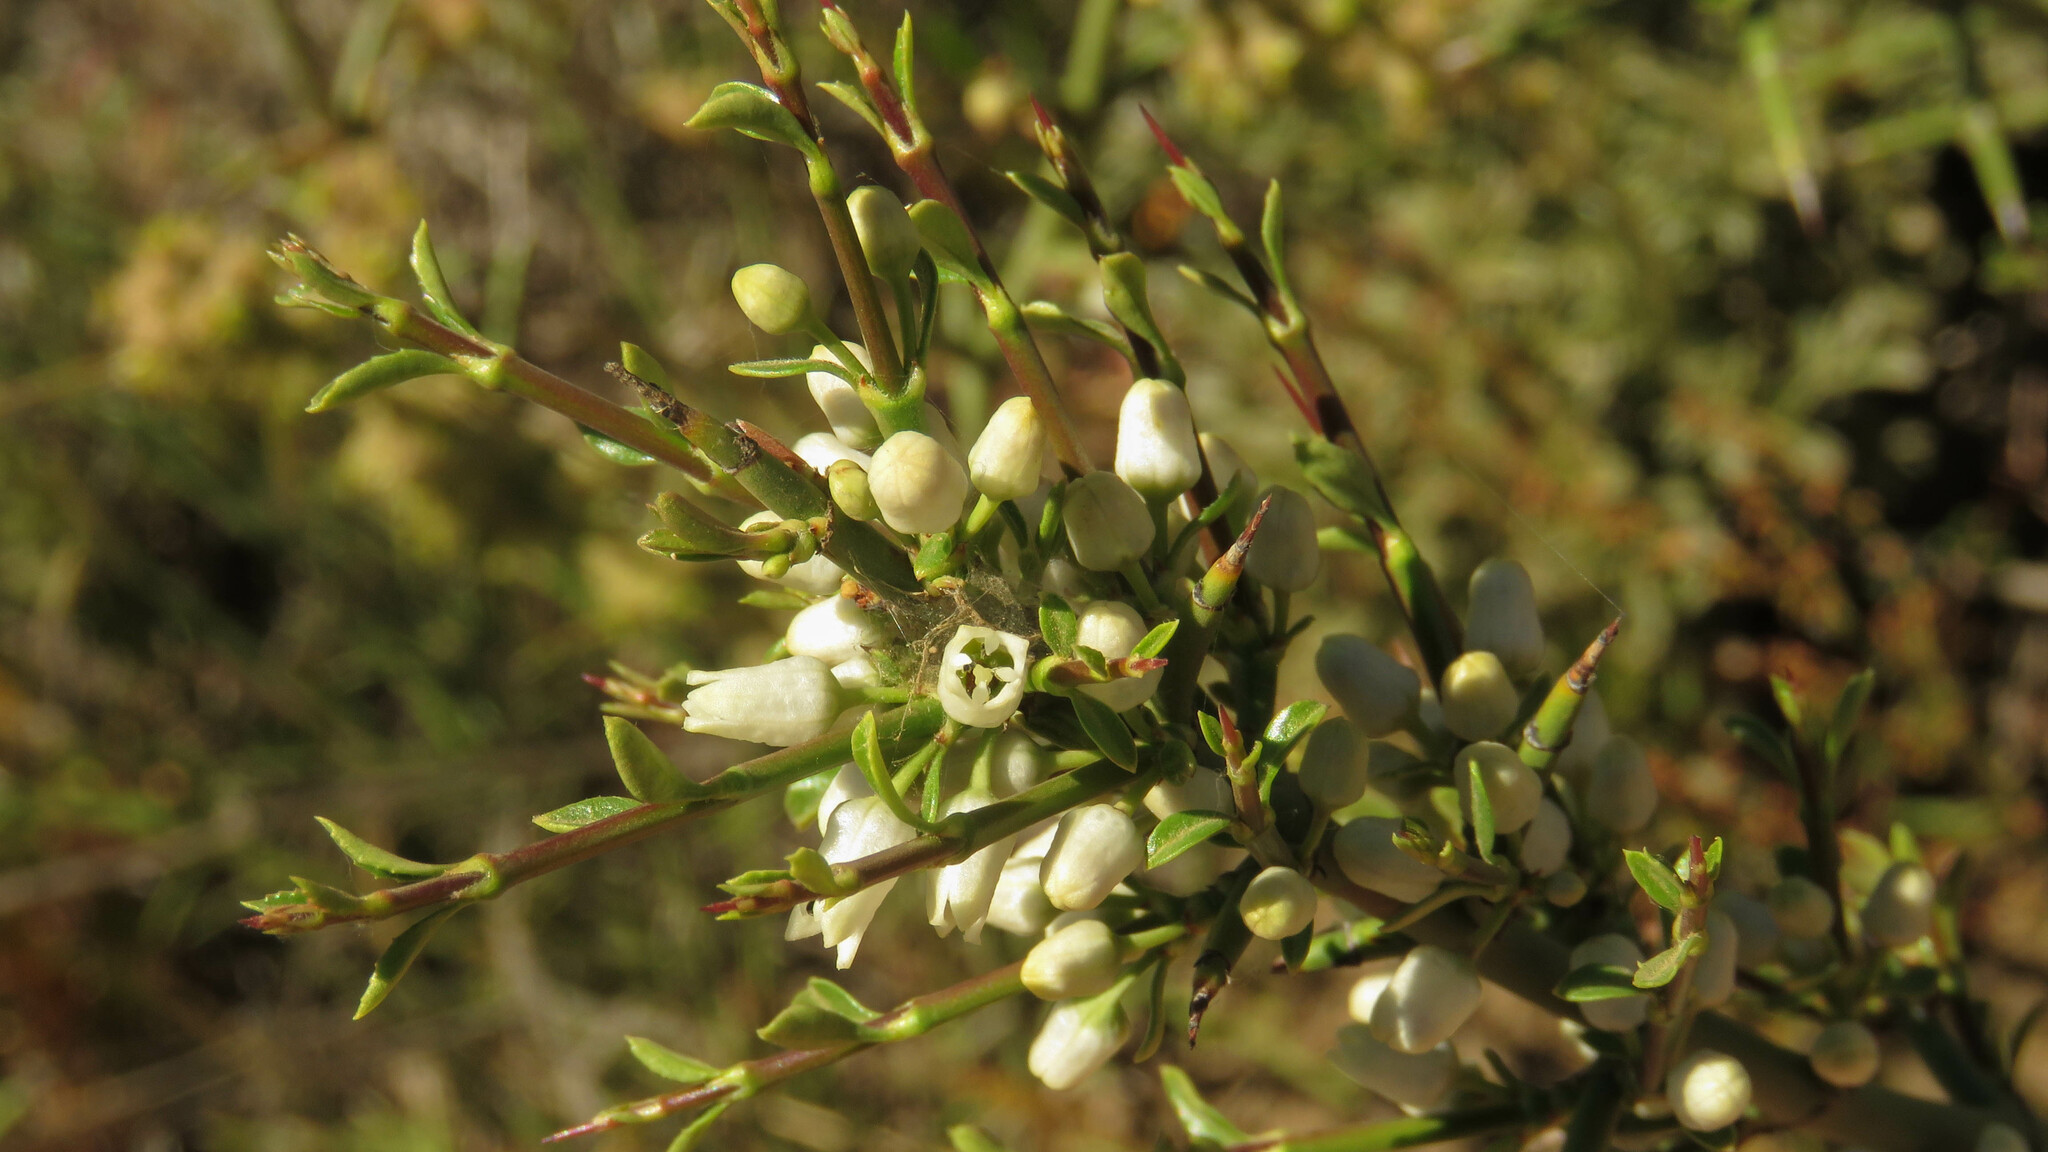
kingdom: Plantae
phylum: Tracheophyta
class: Magnoliopsida
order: Rosales
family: Rhamnaceae
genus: Colletia
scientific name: Colletia hystrix
